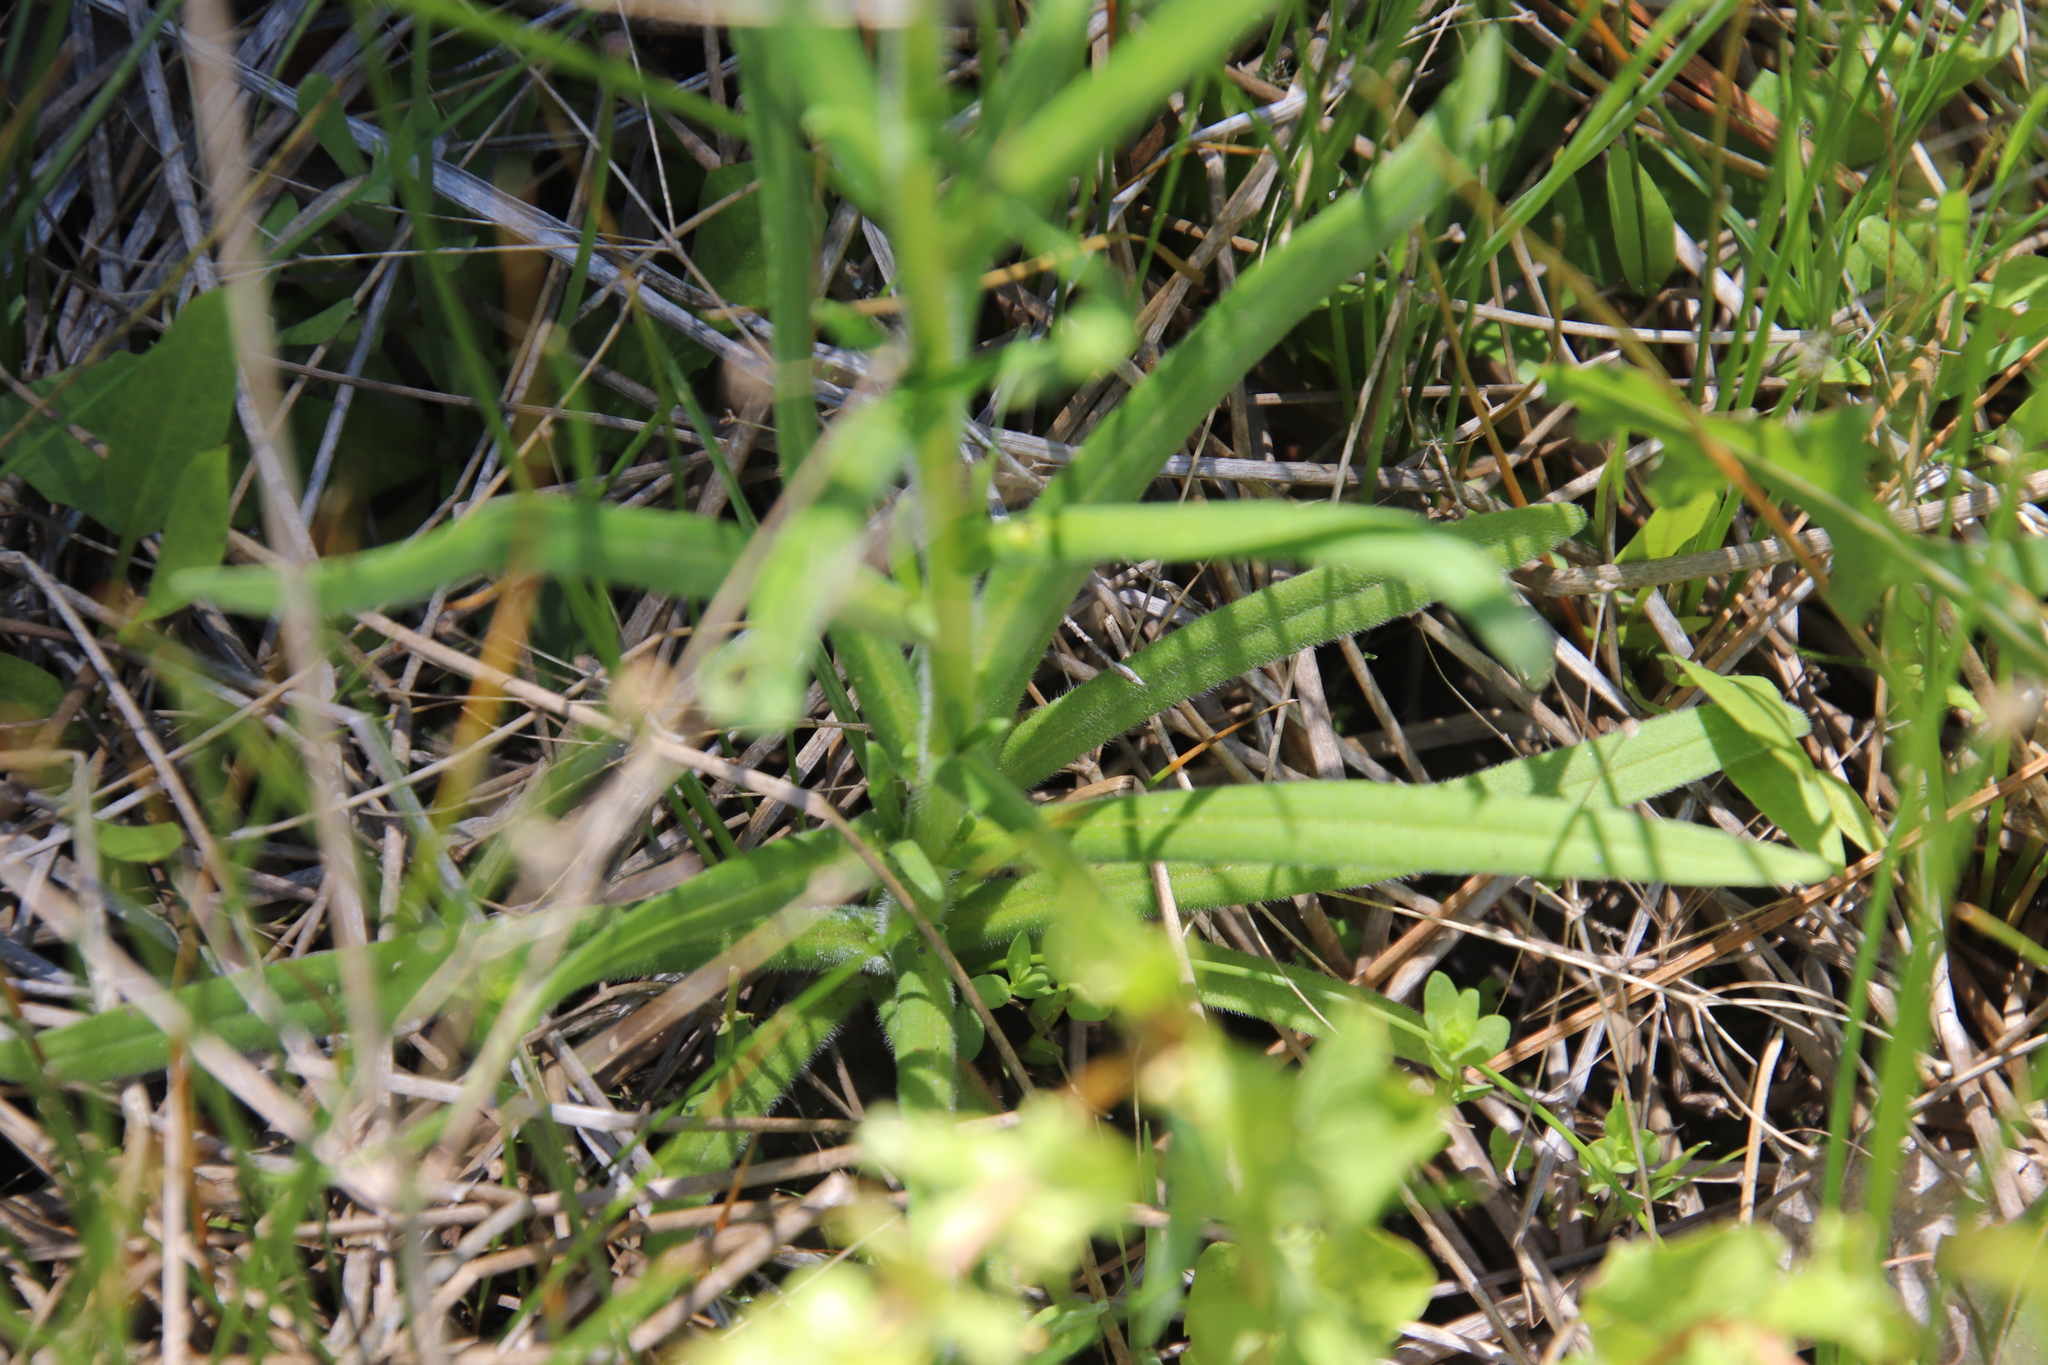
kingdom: Plantae
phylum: Tracheophyta
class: Magnoliopsida
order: Asterales
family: Asteraceae
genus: Madia
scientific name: Madia gracilis
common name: Grassy tarweed
